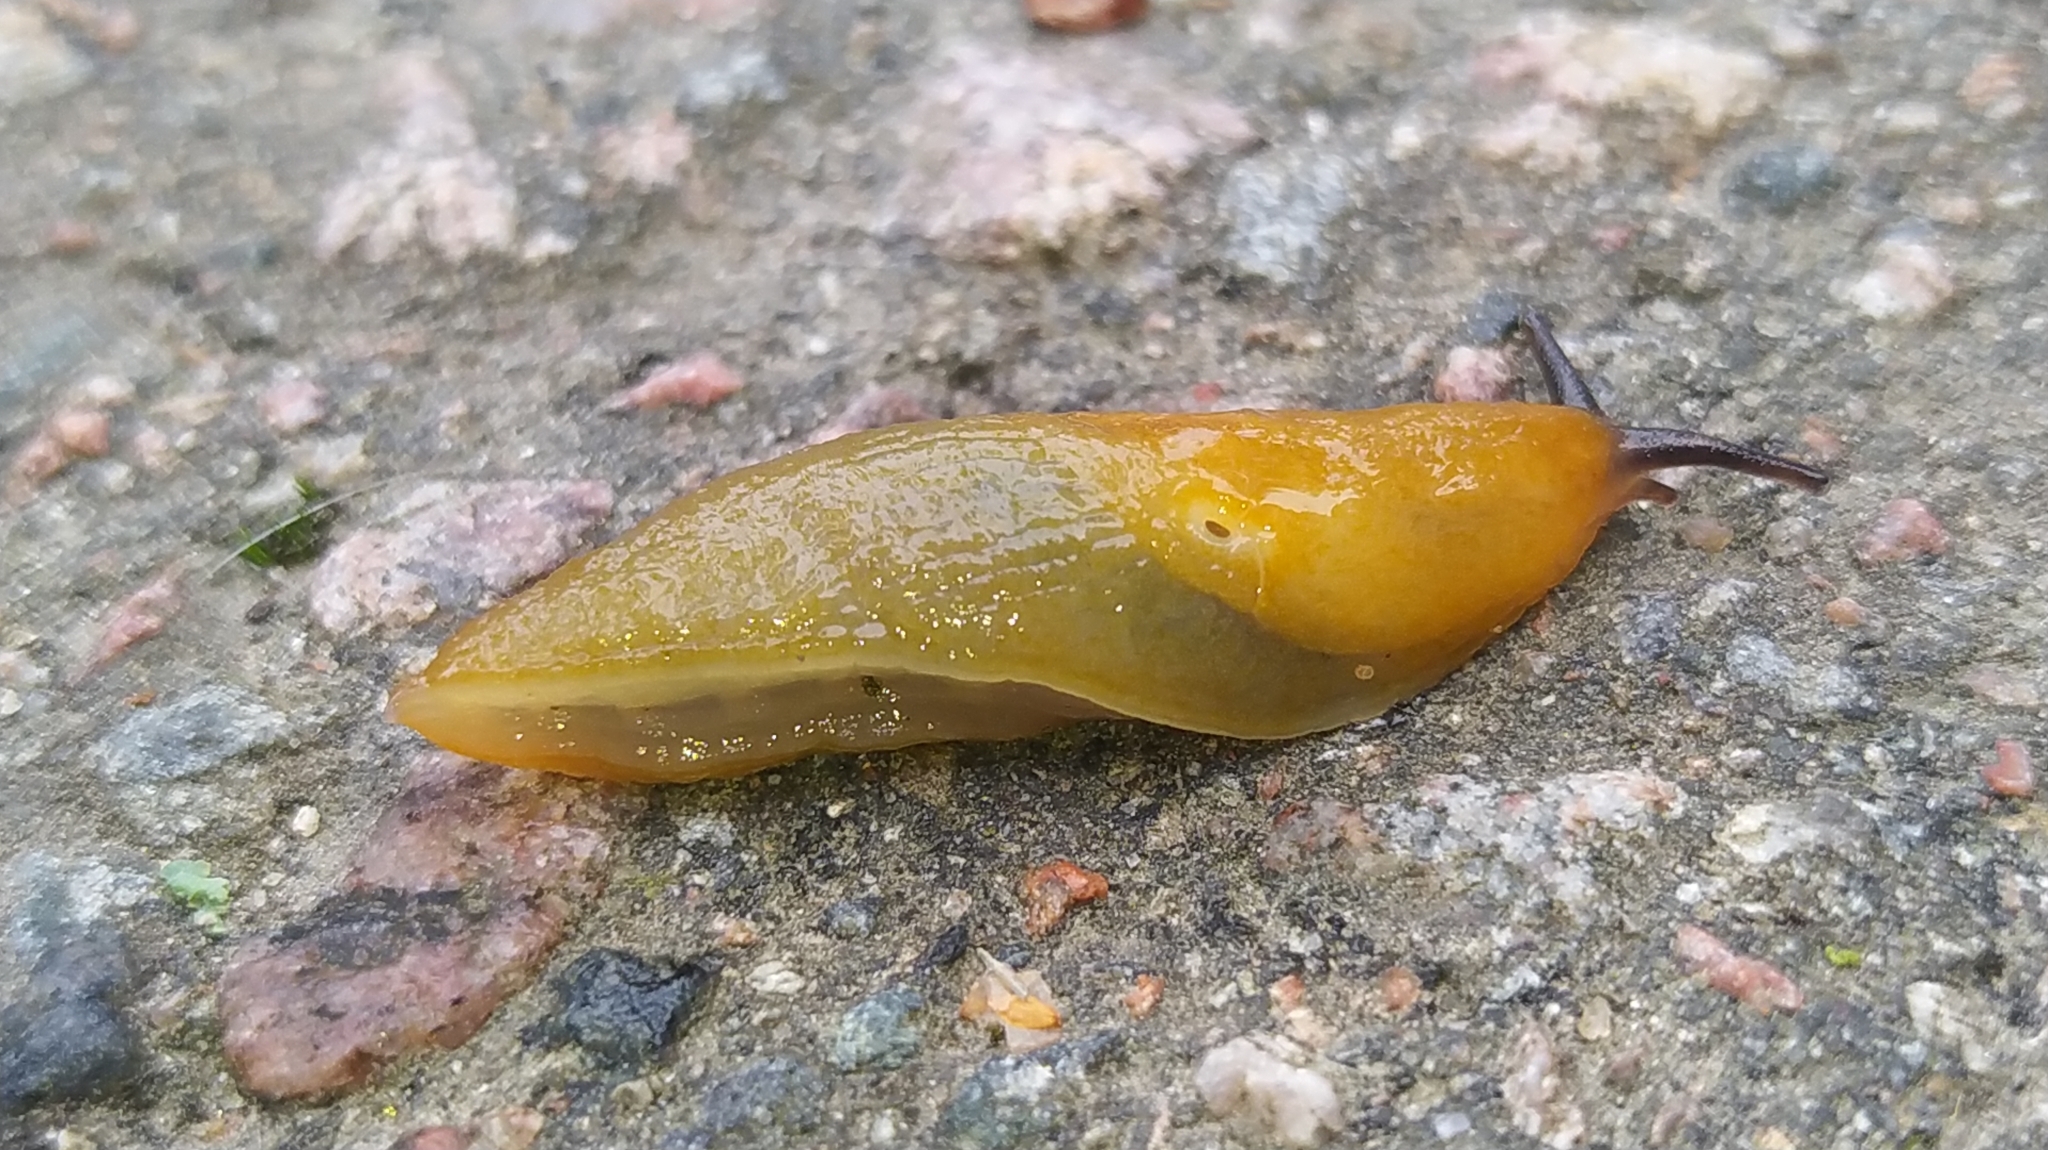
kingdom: Animalia
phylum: Mollusca
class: Gastropoda
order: Stylommatophora
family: Limacidae
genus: Malacolimax
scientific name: Malacolimax tenellus
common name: Lemon slug
